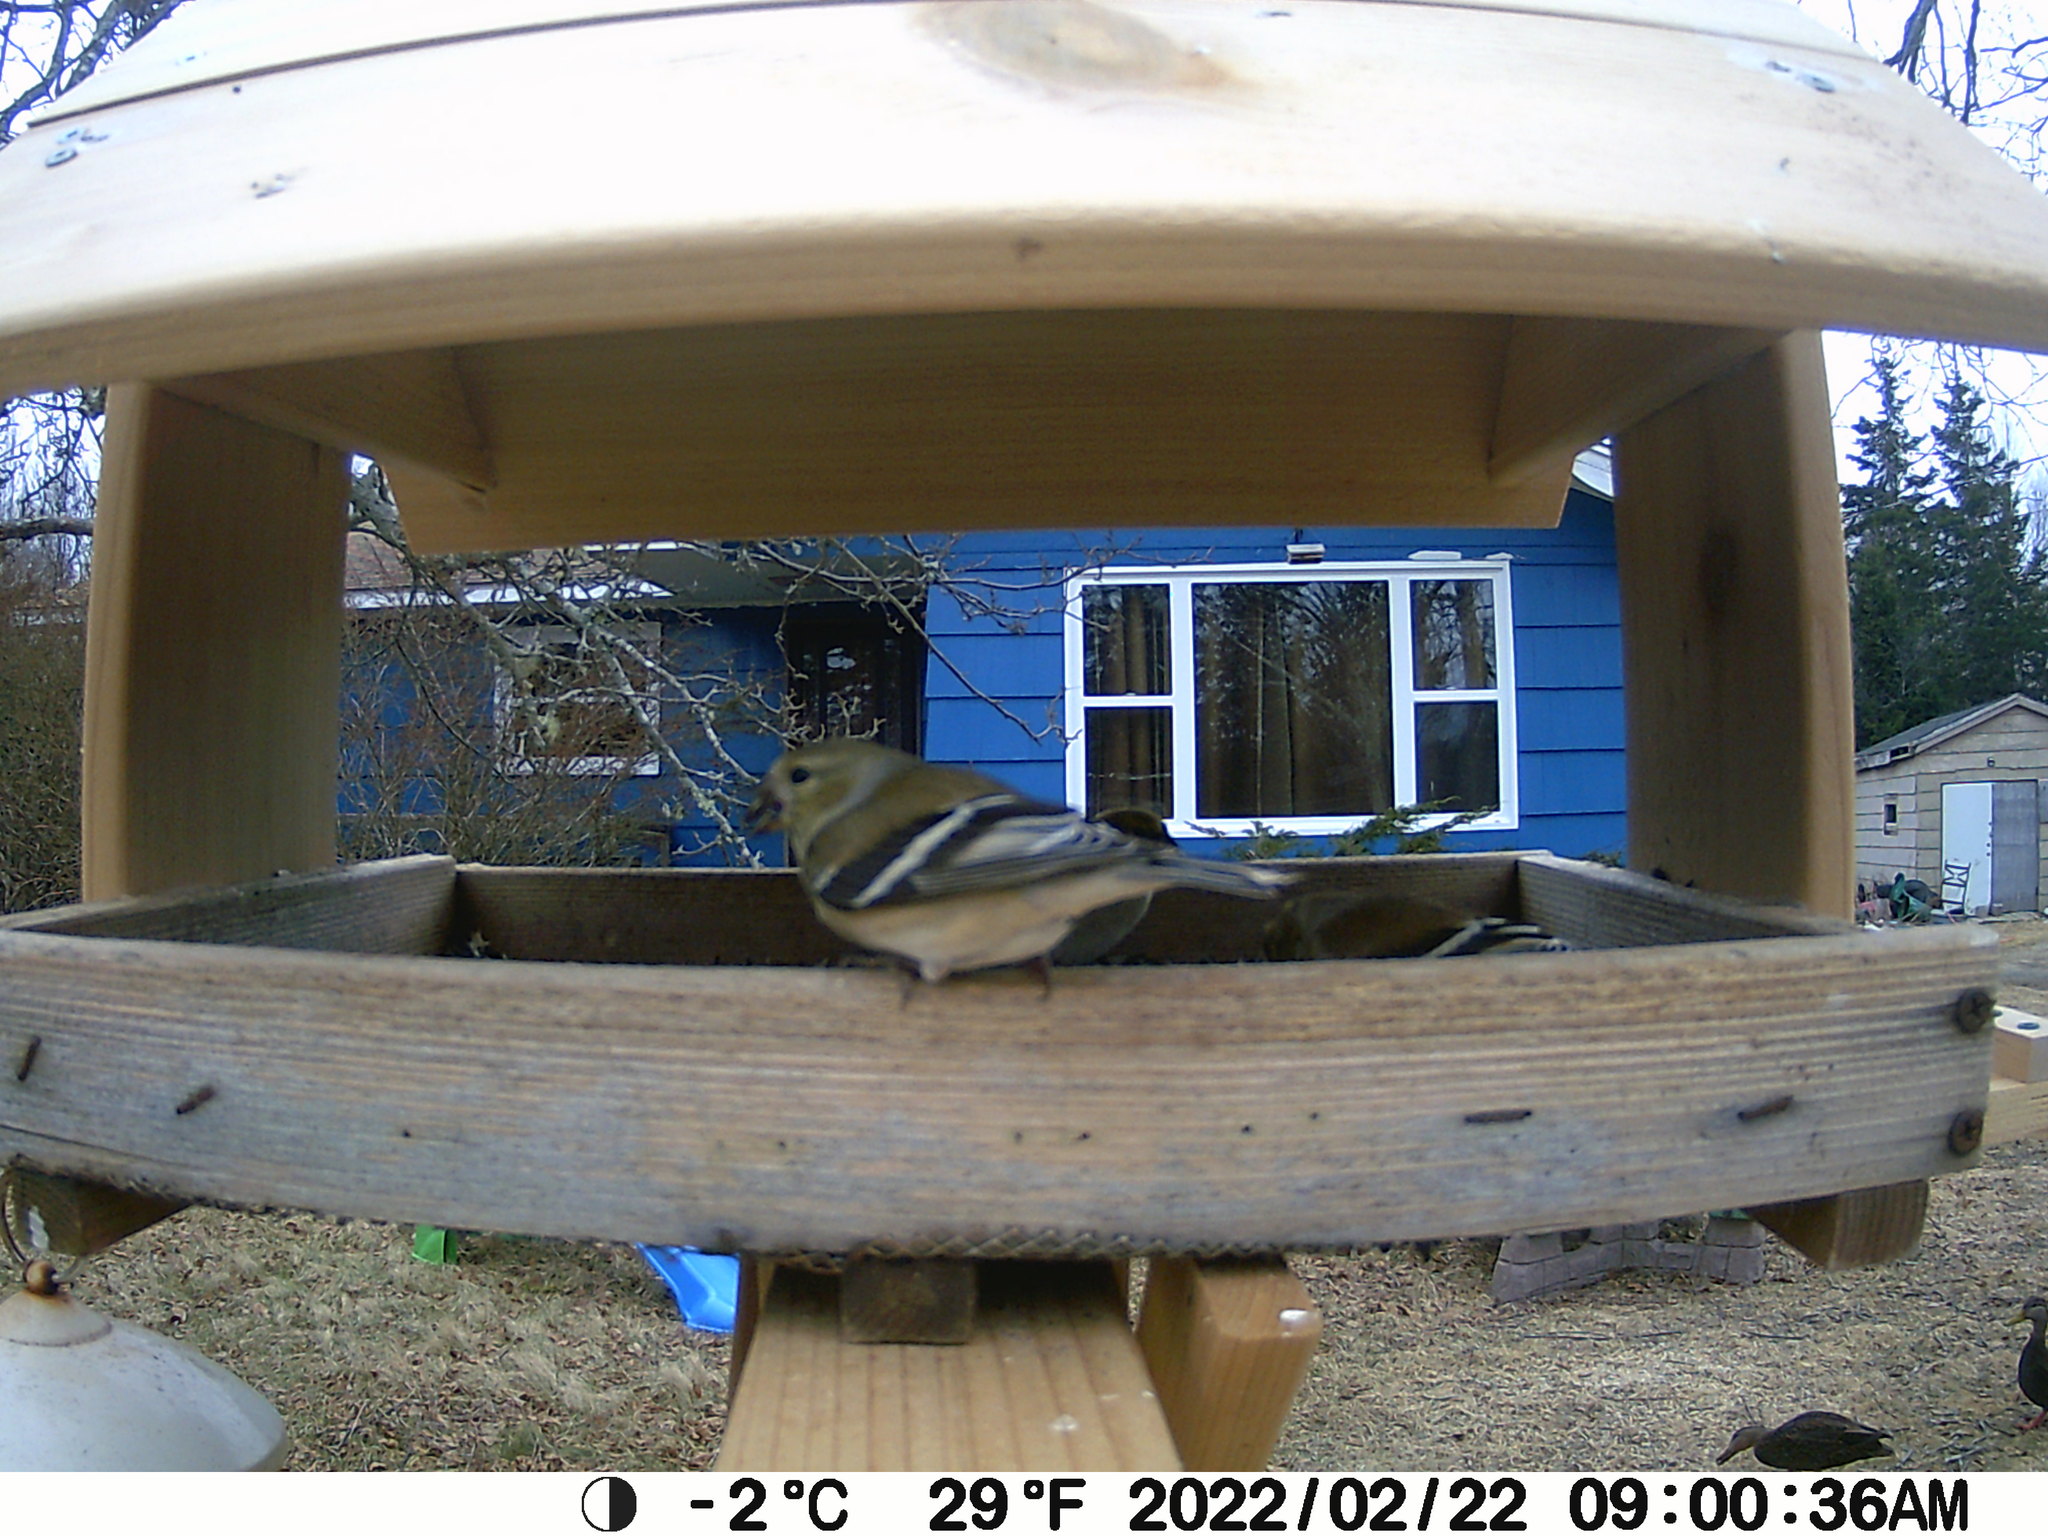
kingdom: Animalia
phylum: Chordata
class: Aves
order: Anseriformes
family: Anatidae
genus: Anas
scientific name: Anas rubripes
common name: American black duck
